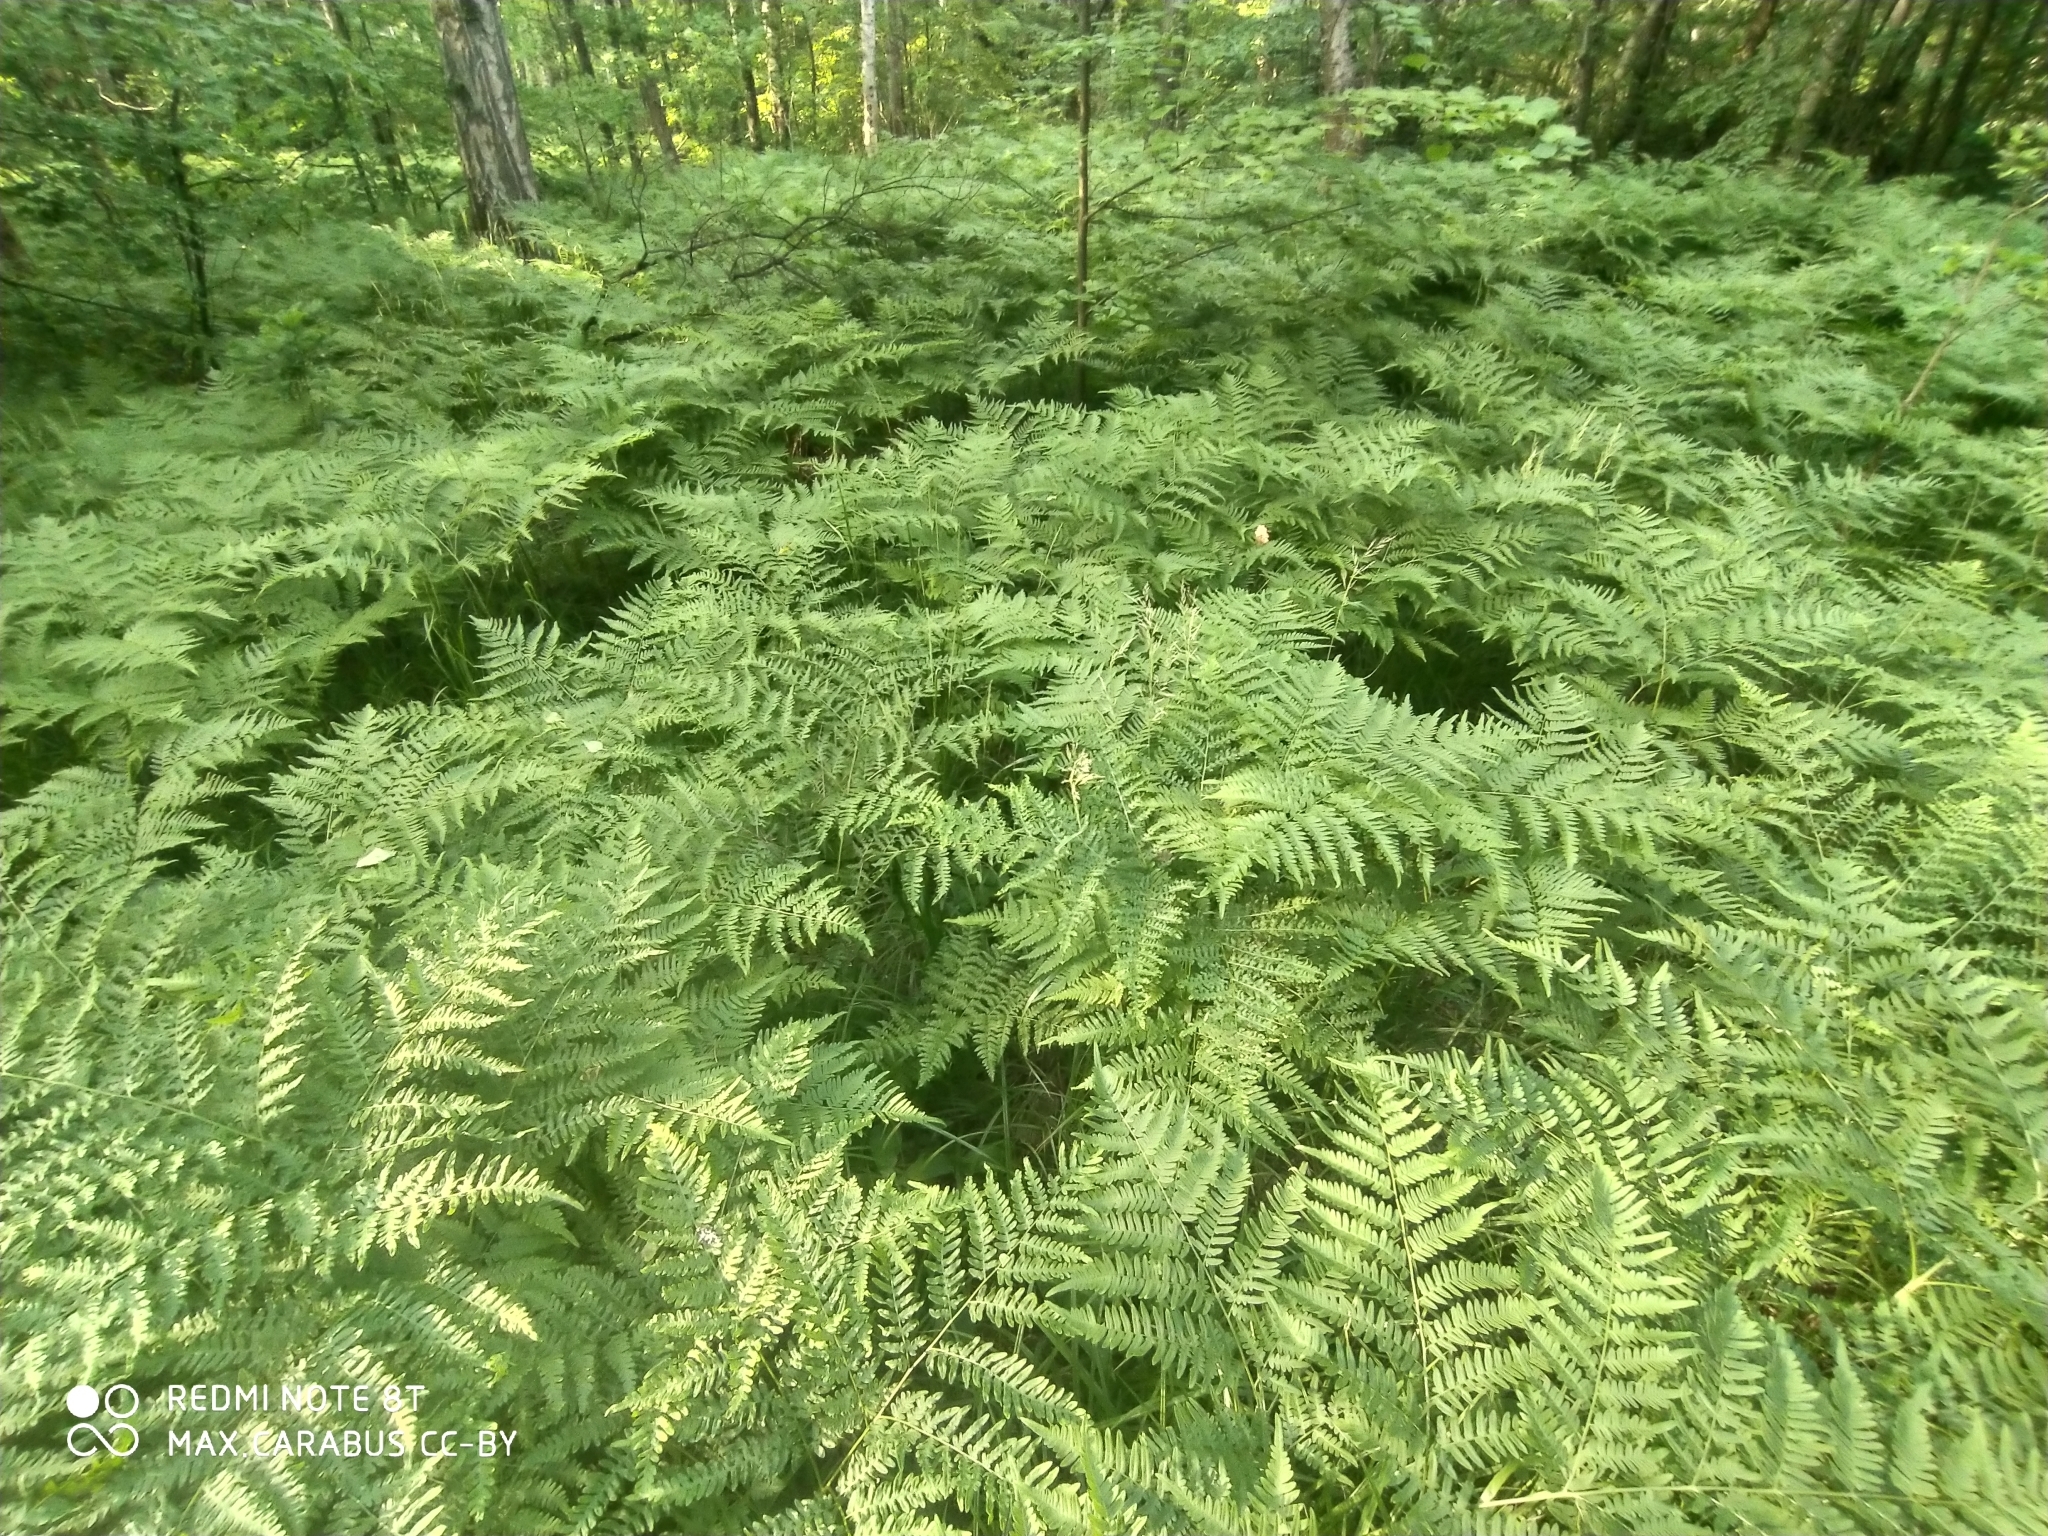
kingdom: Plantae
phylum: Tracheophyta
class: Polypodiopsida
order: Polypodiales
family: Dennstaedtiaceae
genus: Pteridium
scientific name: Pteridium aquilinum
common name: Bracken
